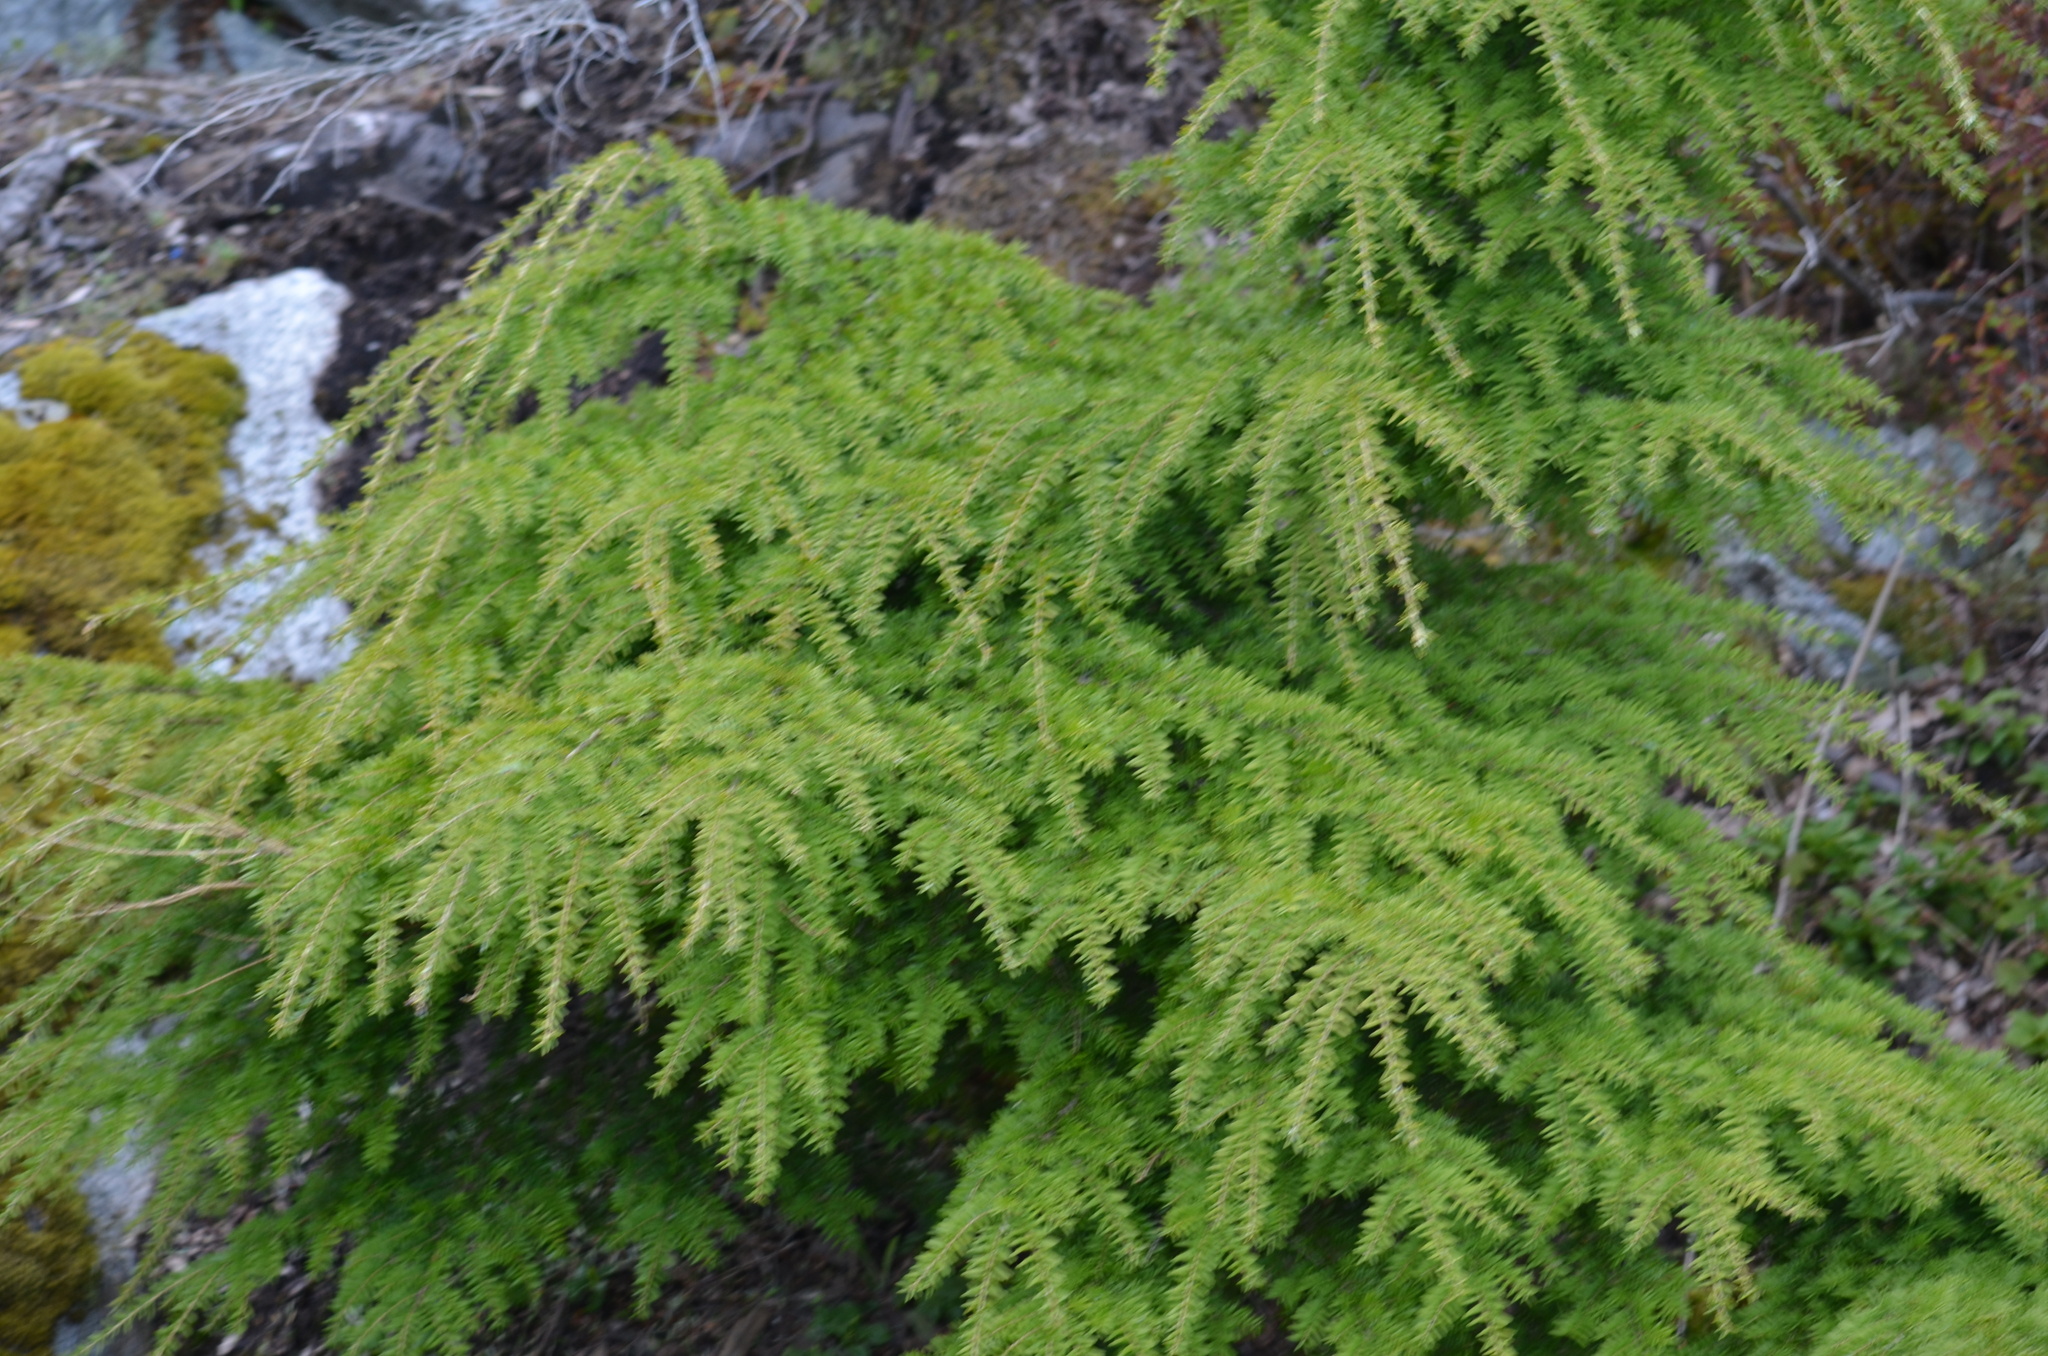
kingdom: Plantae
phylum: Tracheophyta
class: Pinopsida
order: Pinales
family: Pinaceae
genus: Tsuga
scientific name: Tsuga heterophylla
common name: Western hemlock
